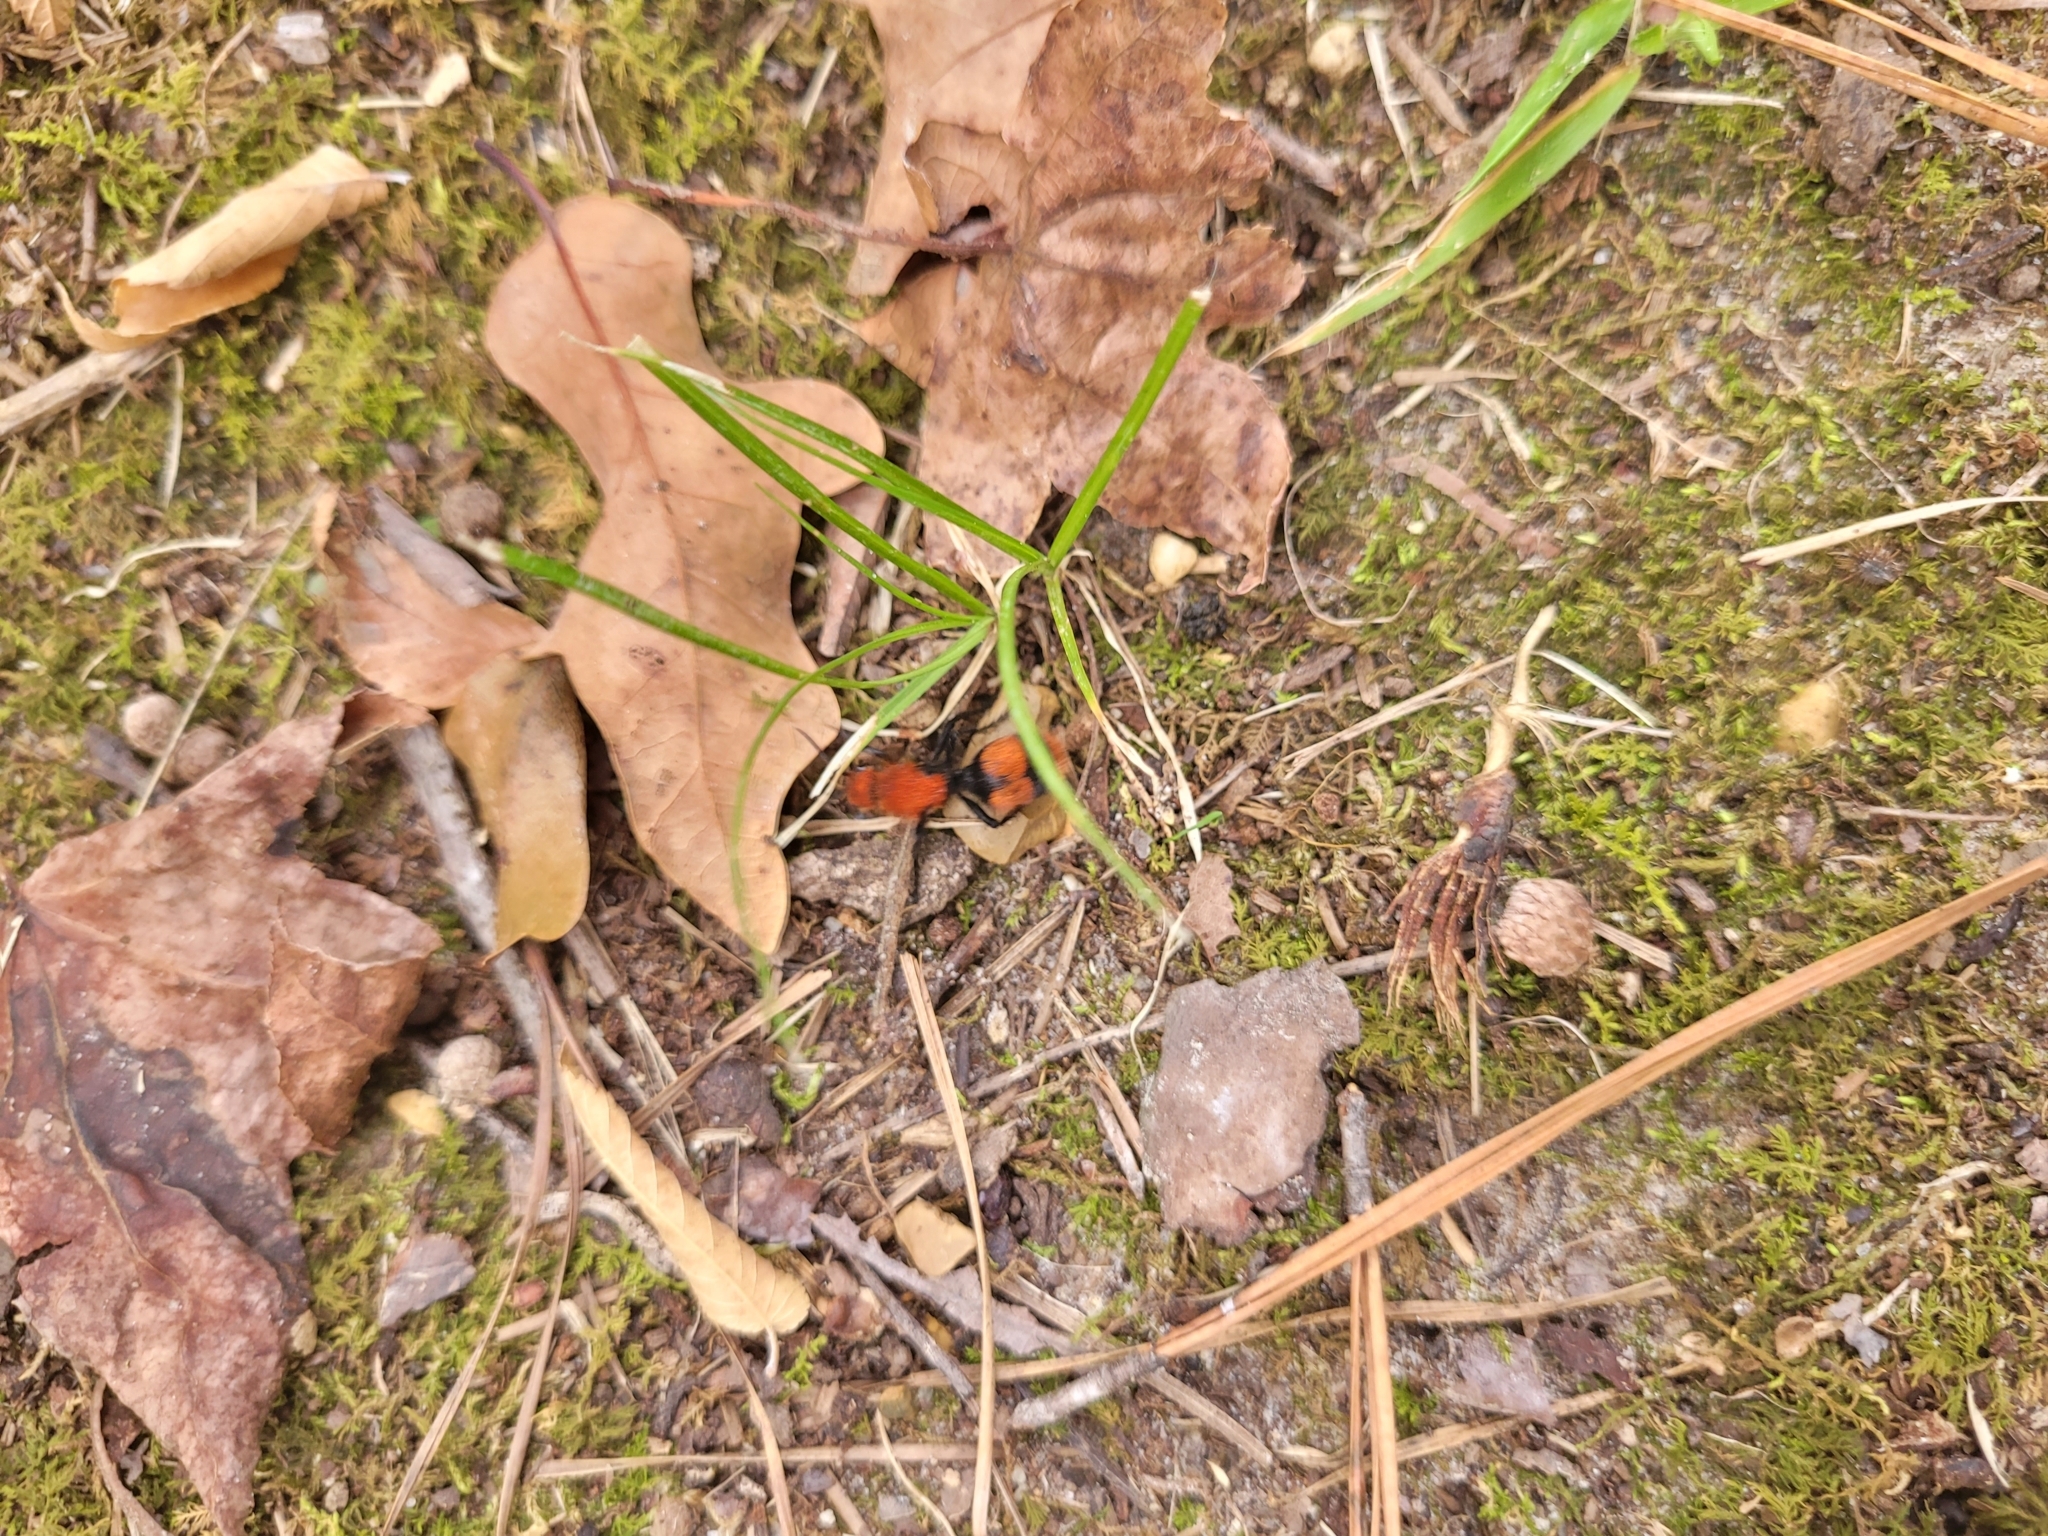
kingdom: Animalia
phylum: Arthropoda
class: Insecta
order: Hymenoptera
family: Mutillidae
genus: Dasymutilla
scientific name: Dasymutilla occidentalis
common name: Common eastern velvet ant
